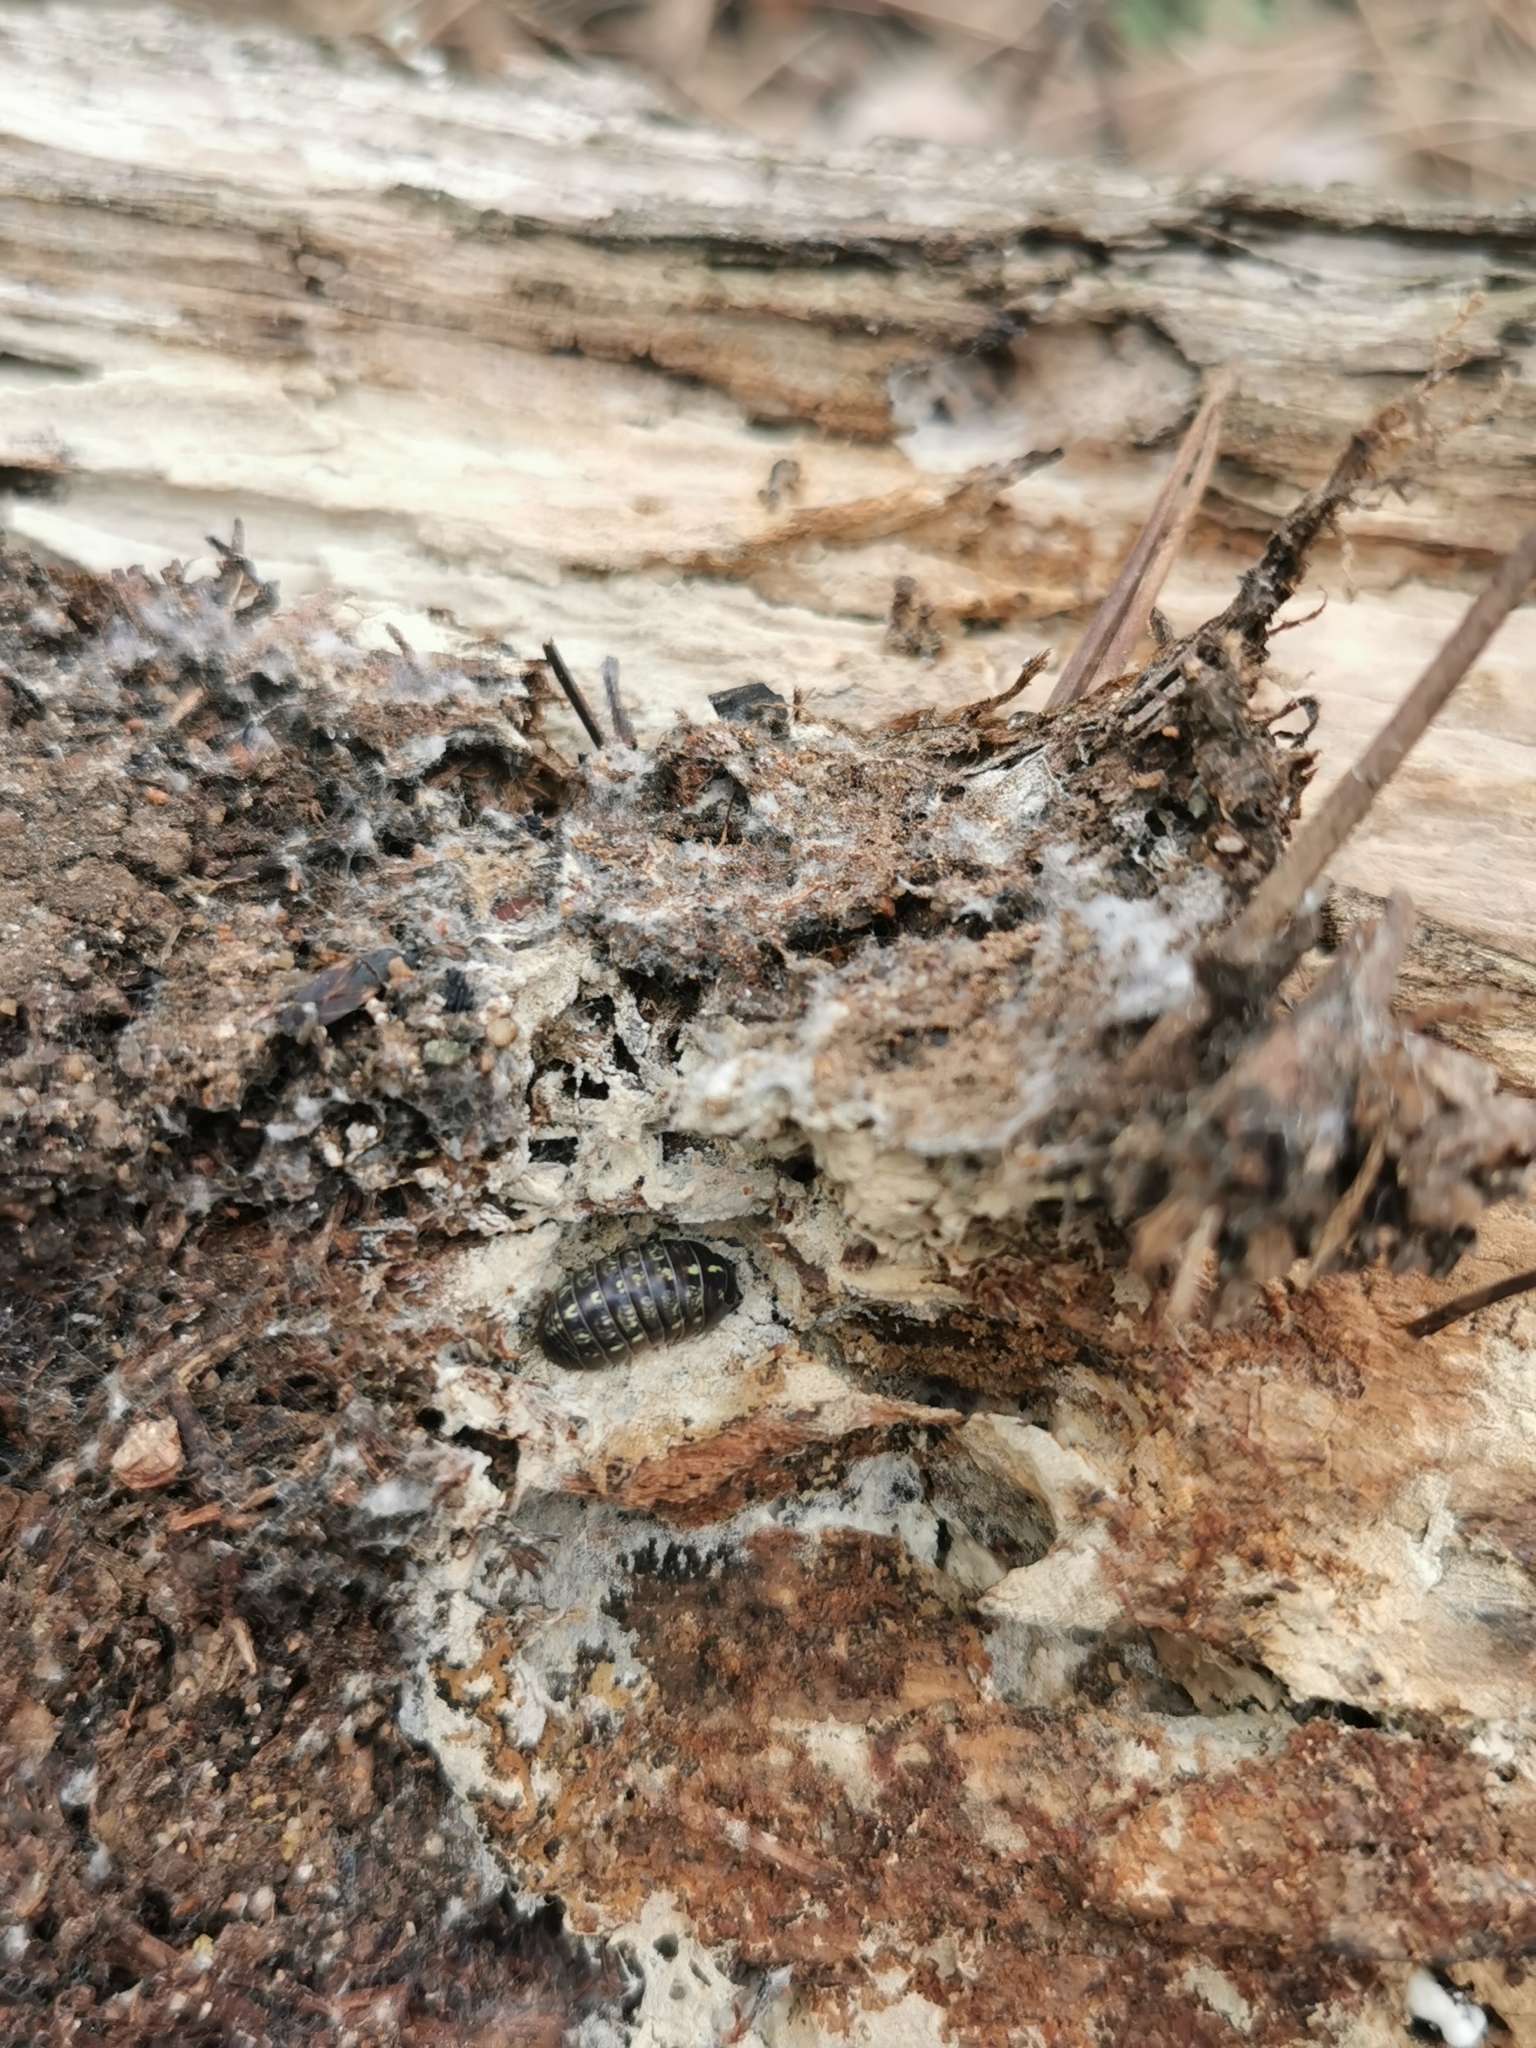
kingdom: Animalia
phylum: Arthropoda
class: Malacostraca
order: Isopoda
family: Armadillidiidae
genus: Armadillidium
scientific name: Armadillidium vulgare
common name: Common pill woodlouse
